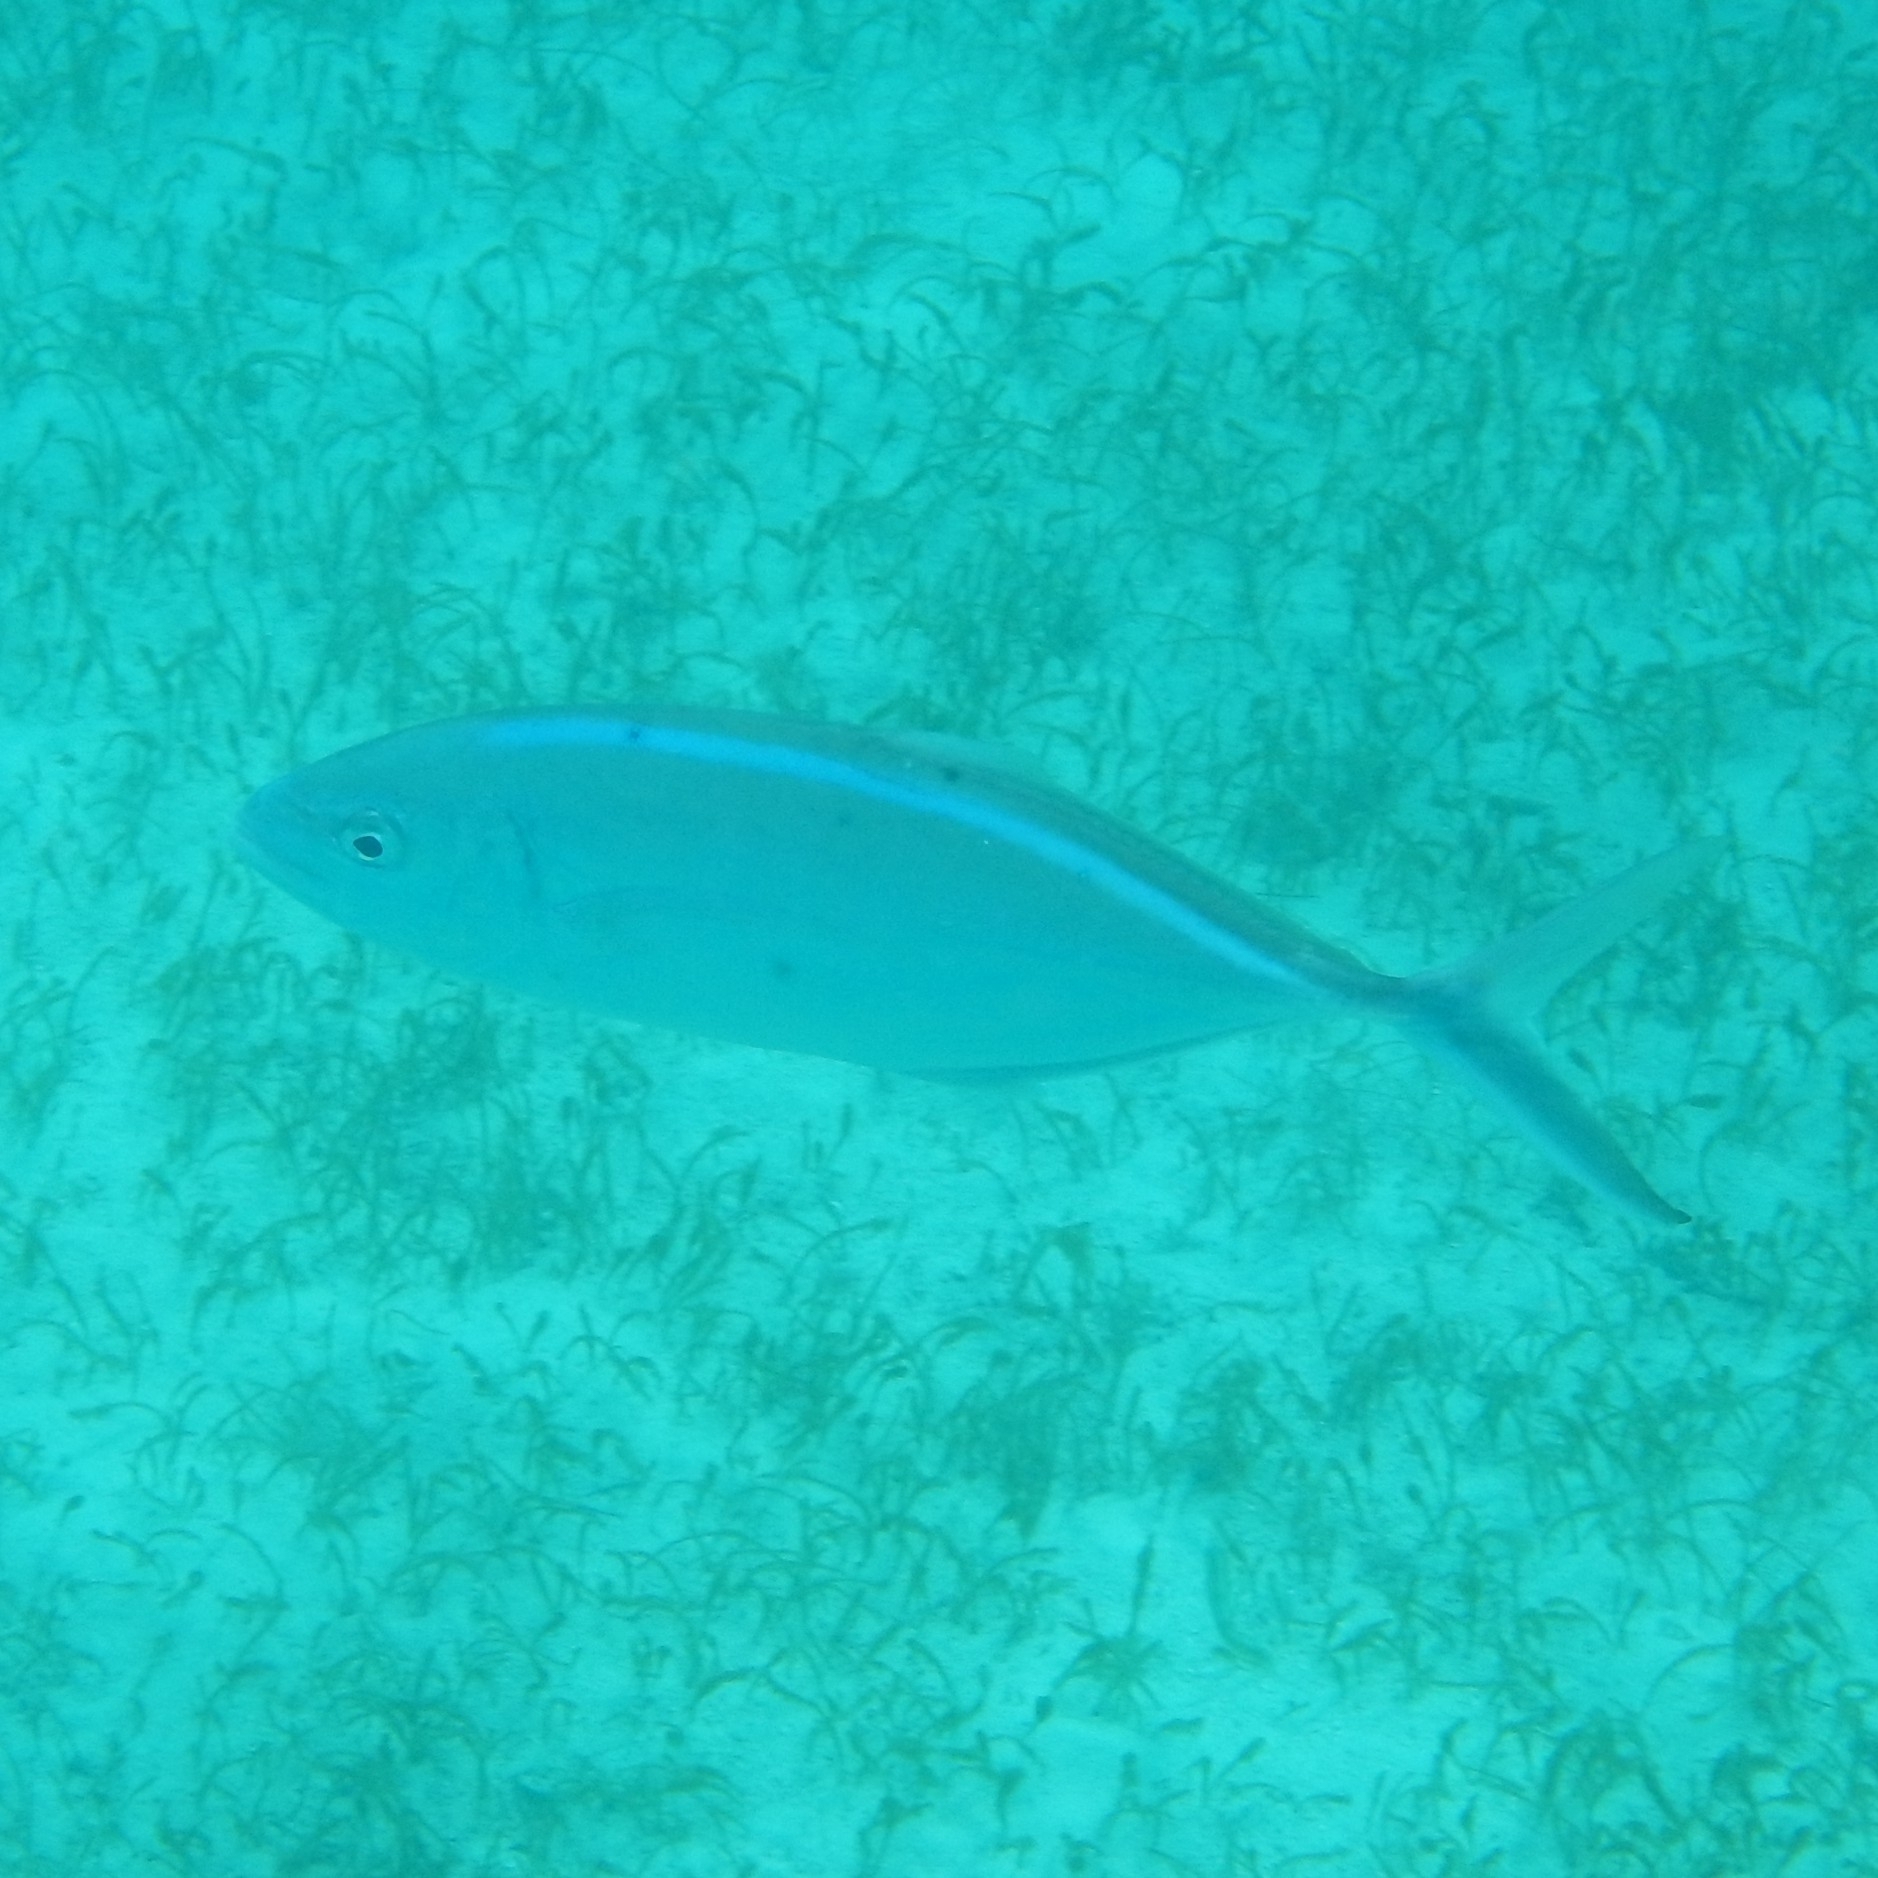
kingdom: Animalia
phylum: Chordata
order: Perciformes
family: Carangidae
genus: Caranx
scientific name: Caranx ruber
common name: Bar jack
